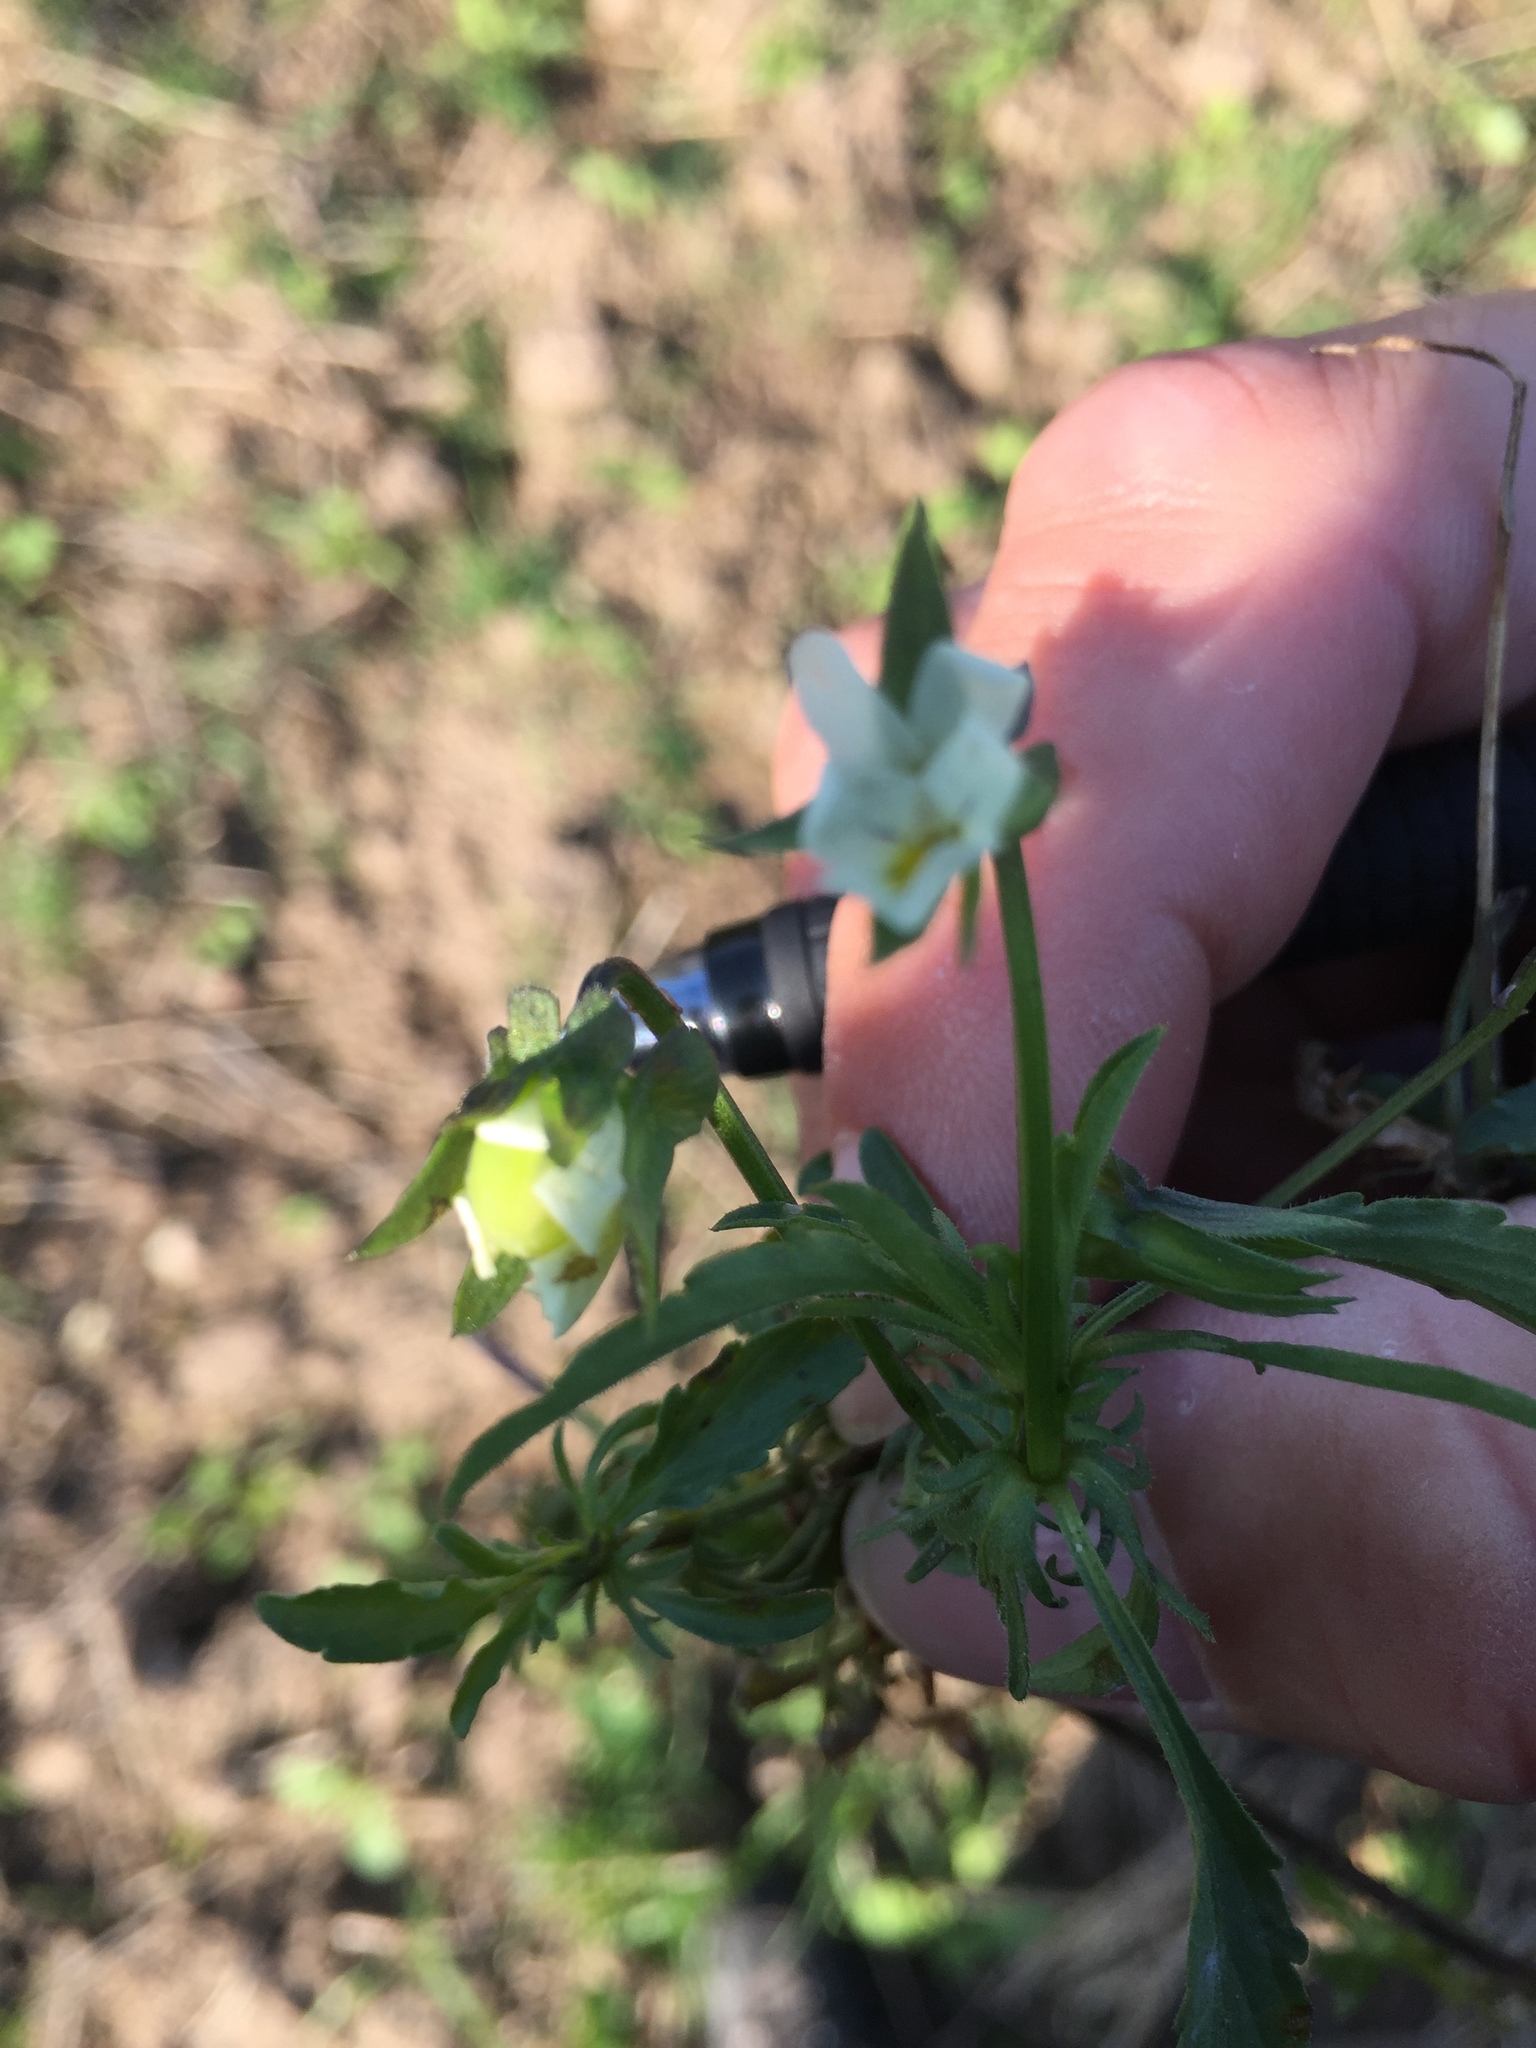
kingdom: Plantae
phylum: Tracheophyta
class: Magnoliopsida
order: Malpighiales
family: Violaceae
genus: Viola
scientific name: Viola arvensis
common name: Field pansy
